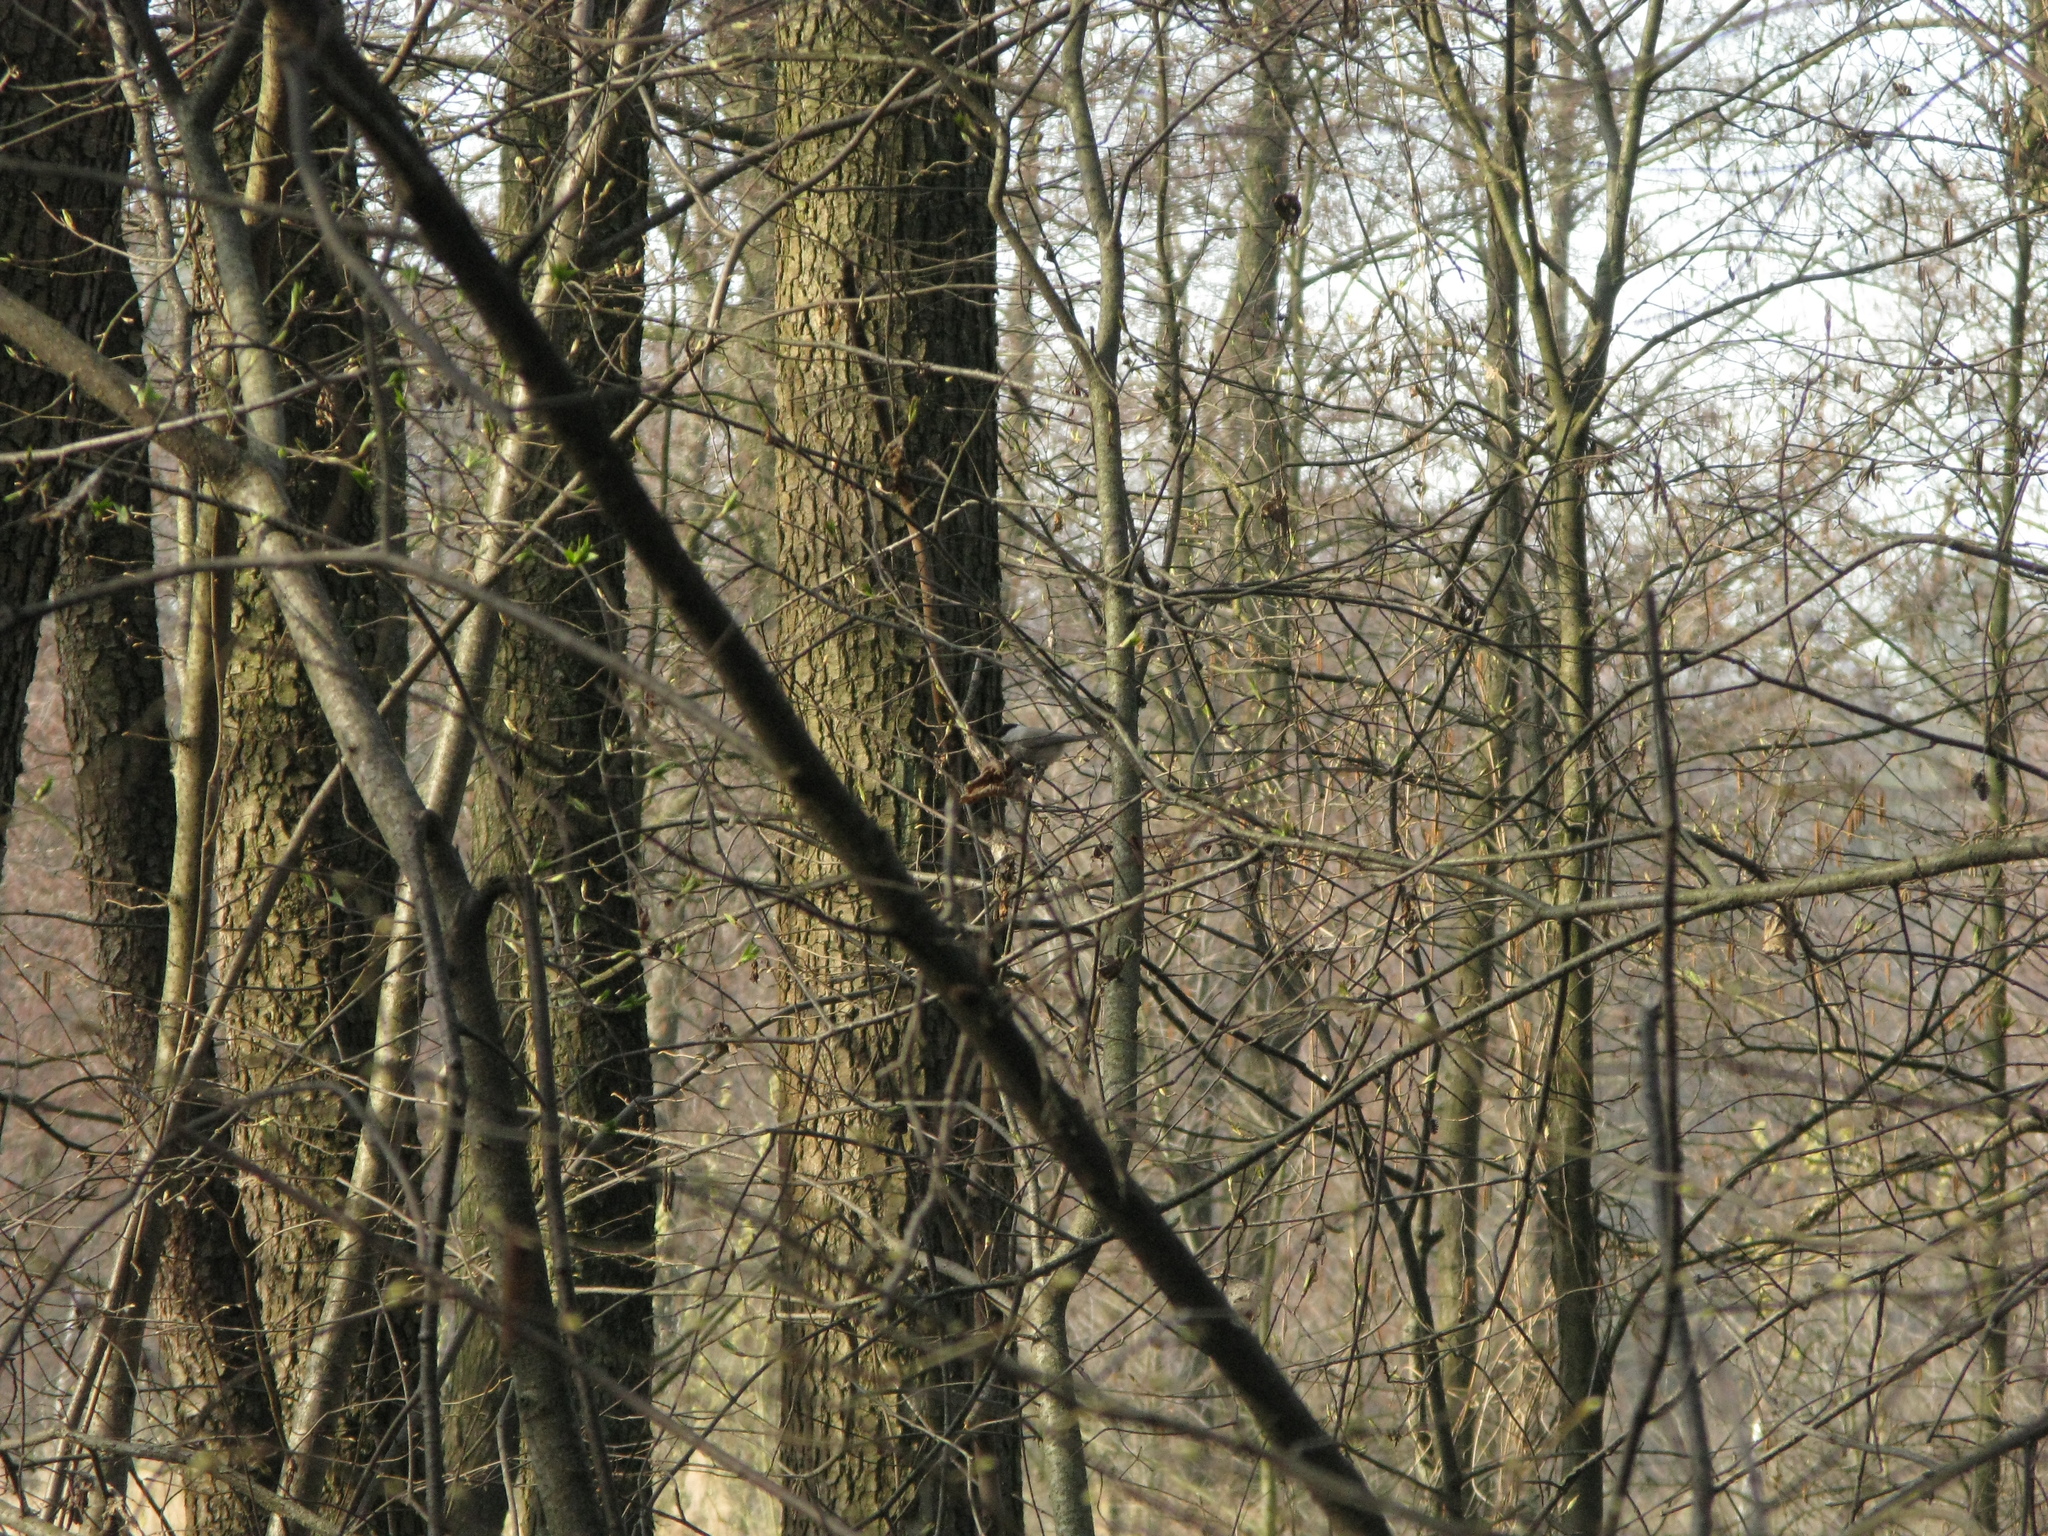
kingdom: Animalia
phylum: Chordata
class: Aves
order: Passeriformes
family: Paridae
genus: Poecile
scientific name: Poecile palustris
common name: Marsh tit
